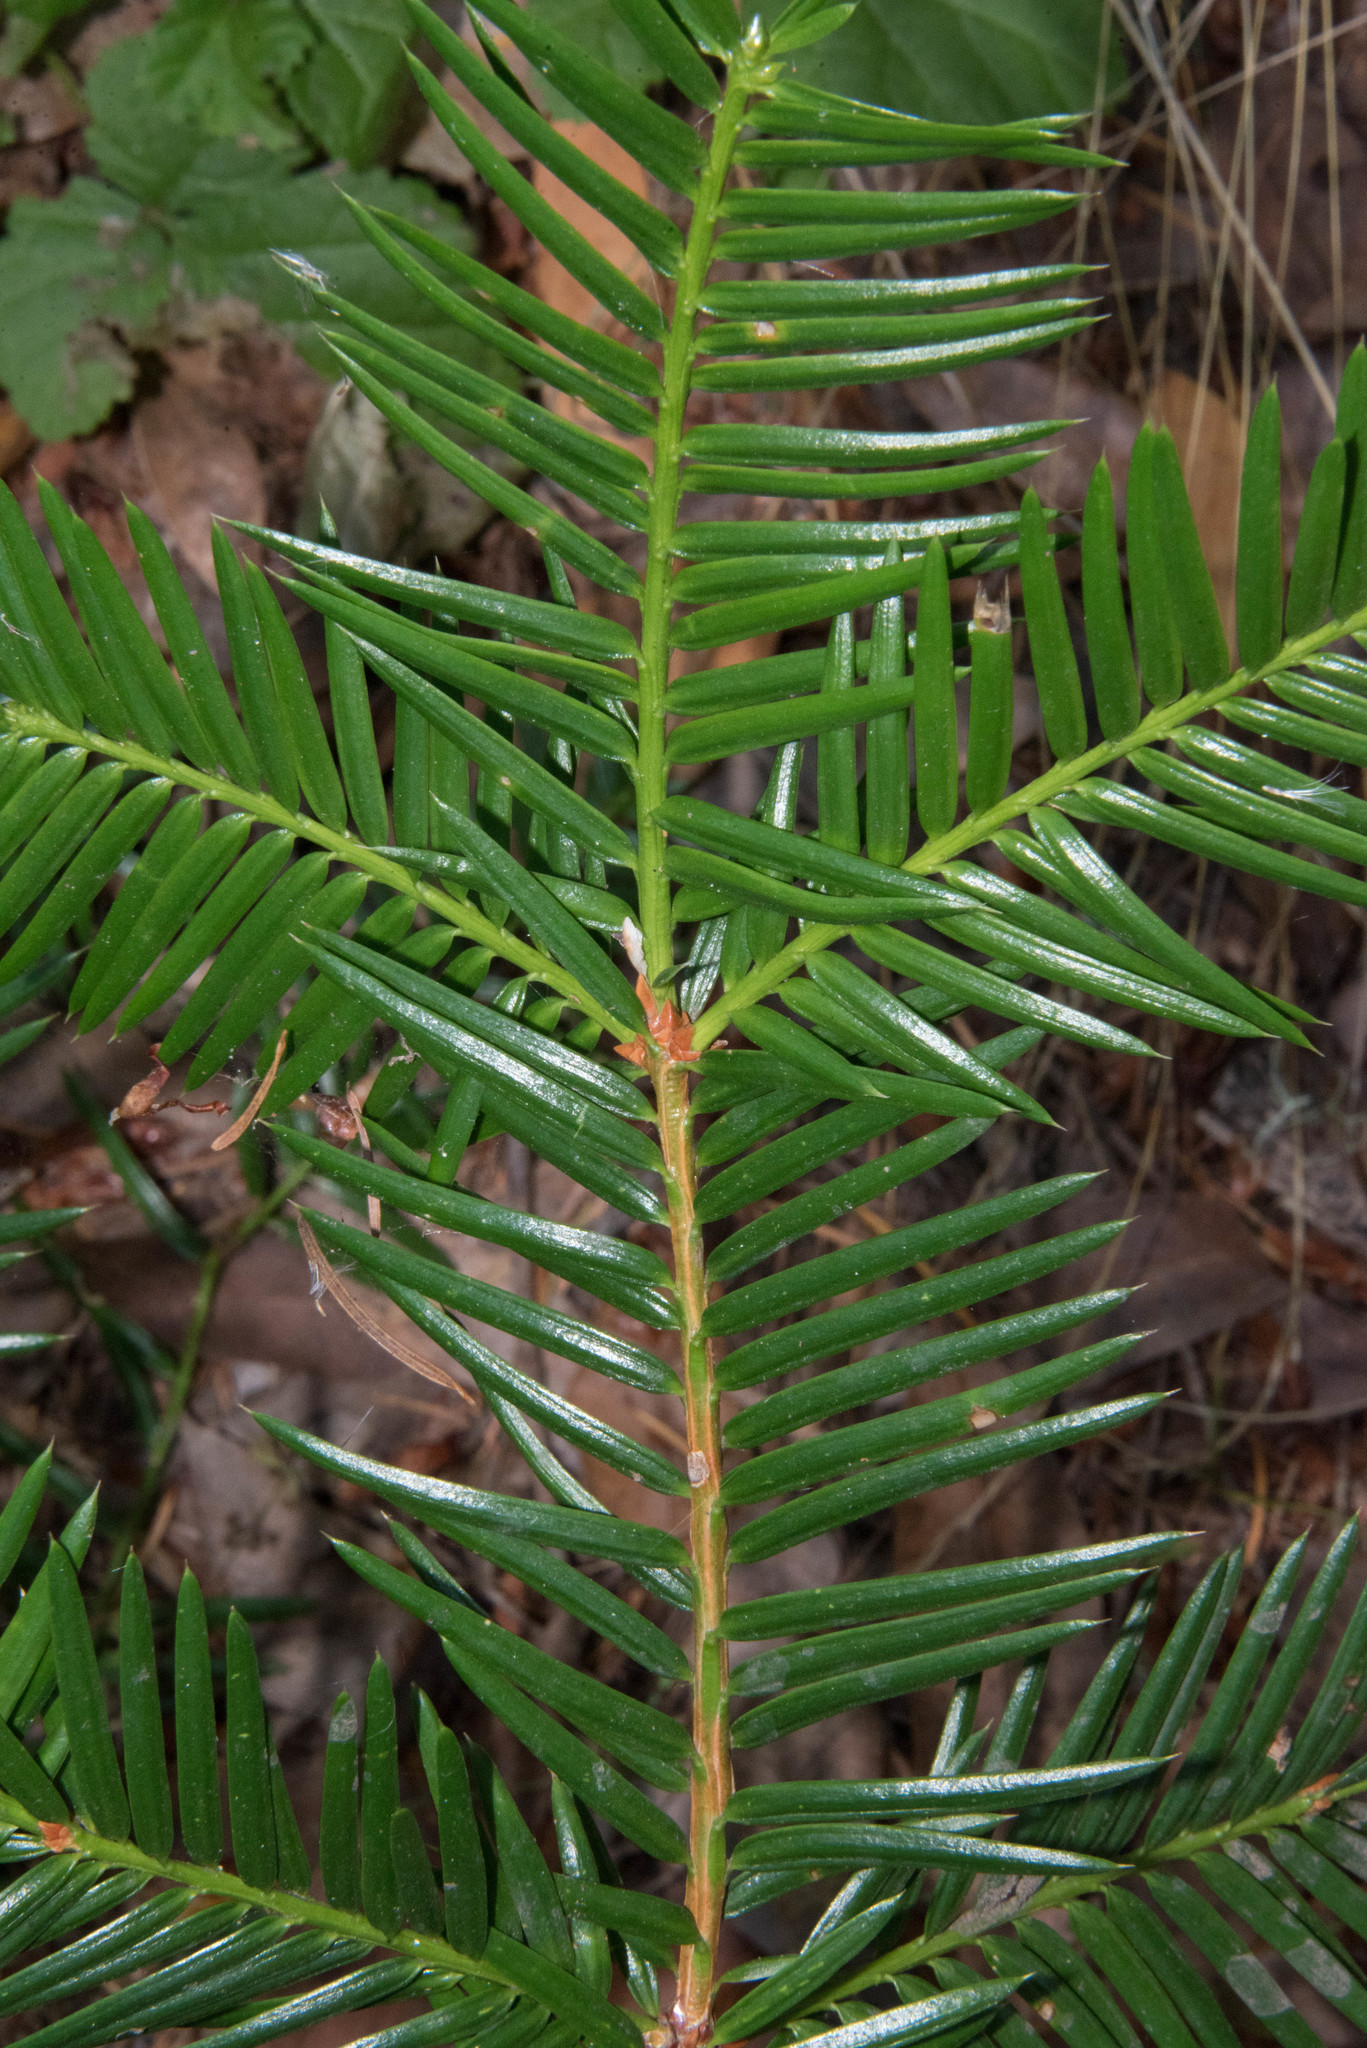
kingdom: Plantae
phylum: Tracheophyta
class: Pinopsida
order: Pinales
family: Taxaceae
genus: Torreya
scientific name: Torreya californica
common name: California torreya
